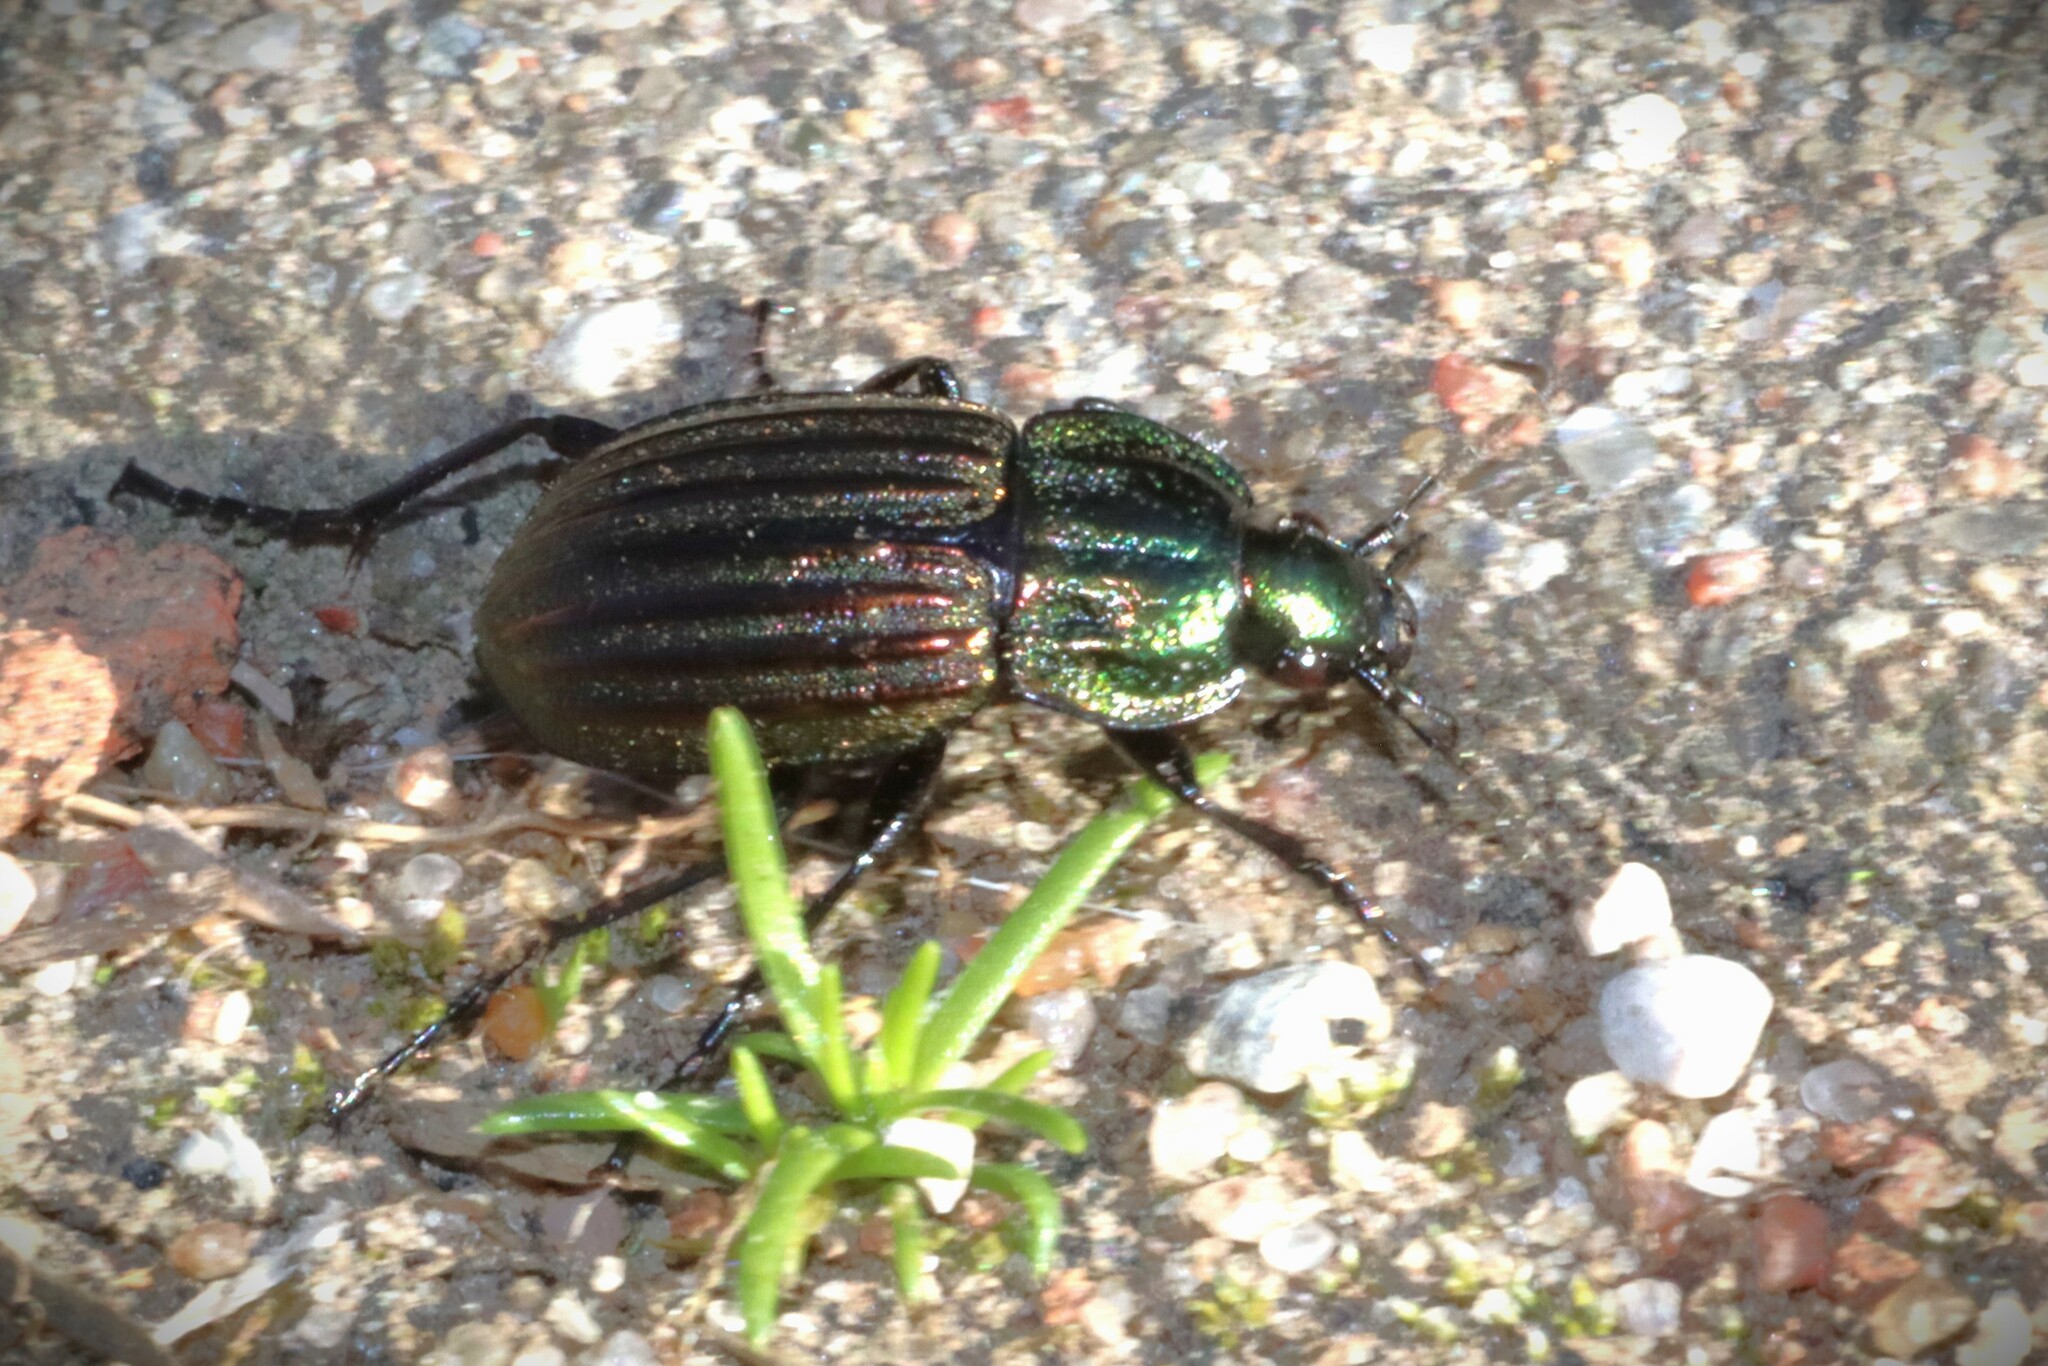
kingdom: Animalia
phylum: Arthropoda
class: Insecta
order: Coleoptera
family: Carabidae
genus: Chlaenius
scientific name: Chlaenius costulatus
